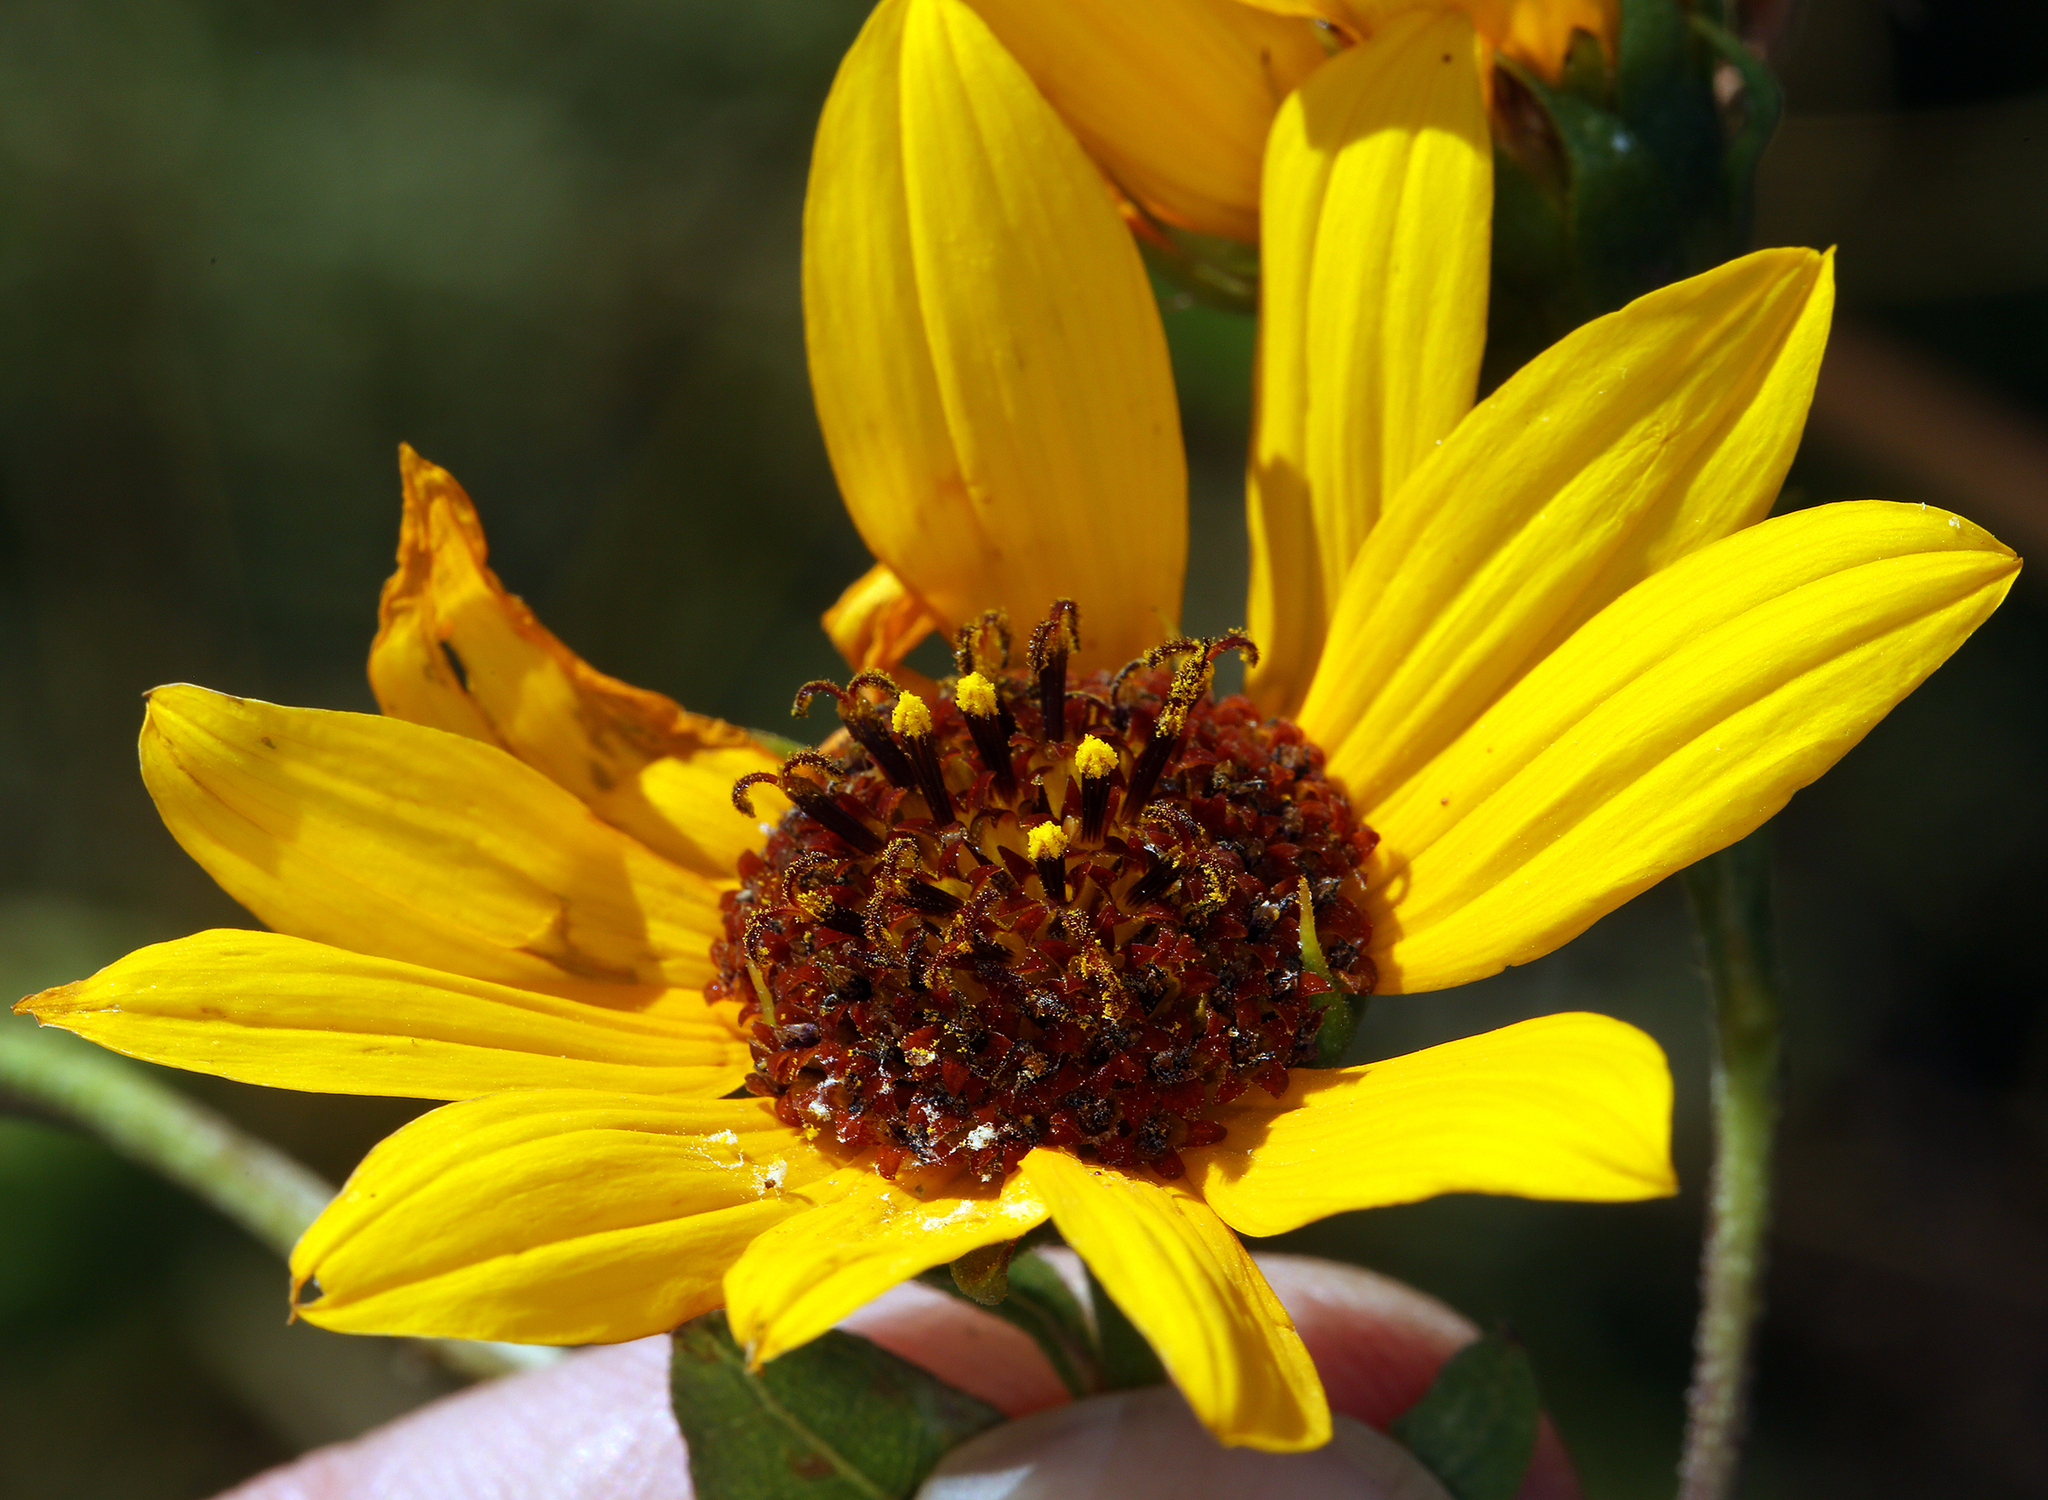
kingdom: Plantae
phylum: Tracheophyta
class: Magnoliopsida
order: Asterales
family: Asteraceae
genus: Helianthus
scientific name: Helianthus annuus
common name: Sunflower
